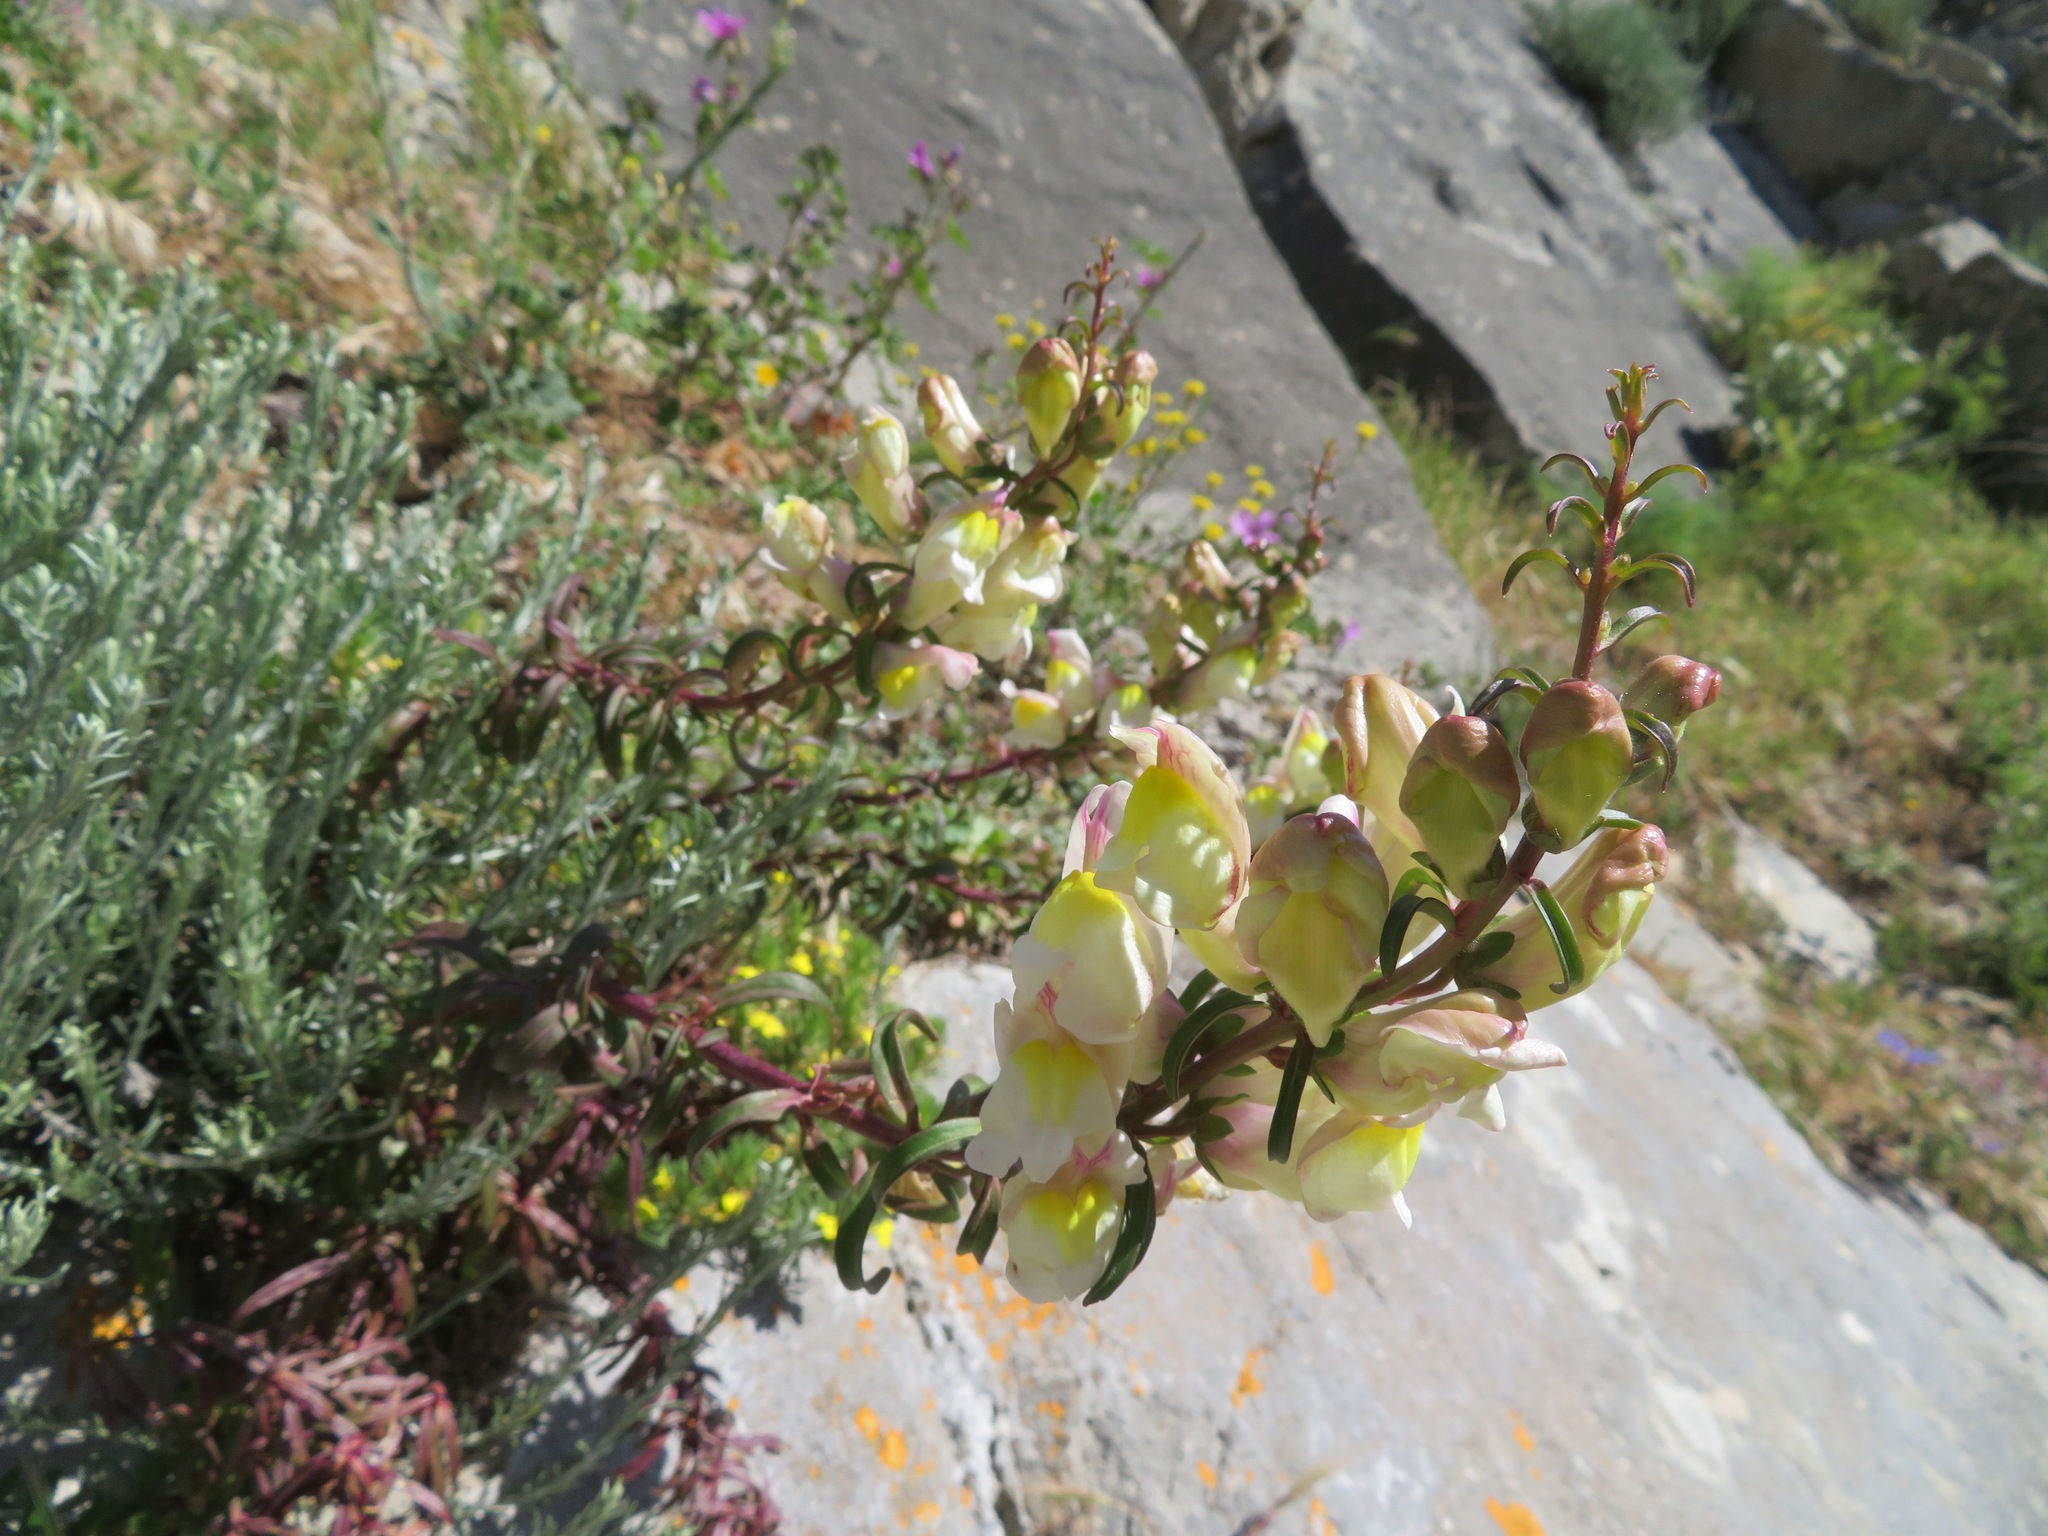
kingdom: Plantae
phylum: Tracheophyta
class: Magnoliopsida
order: Lamiales
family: Plantaginaceae
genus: Antirrhinum
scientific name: Antirrhinum siculum
